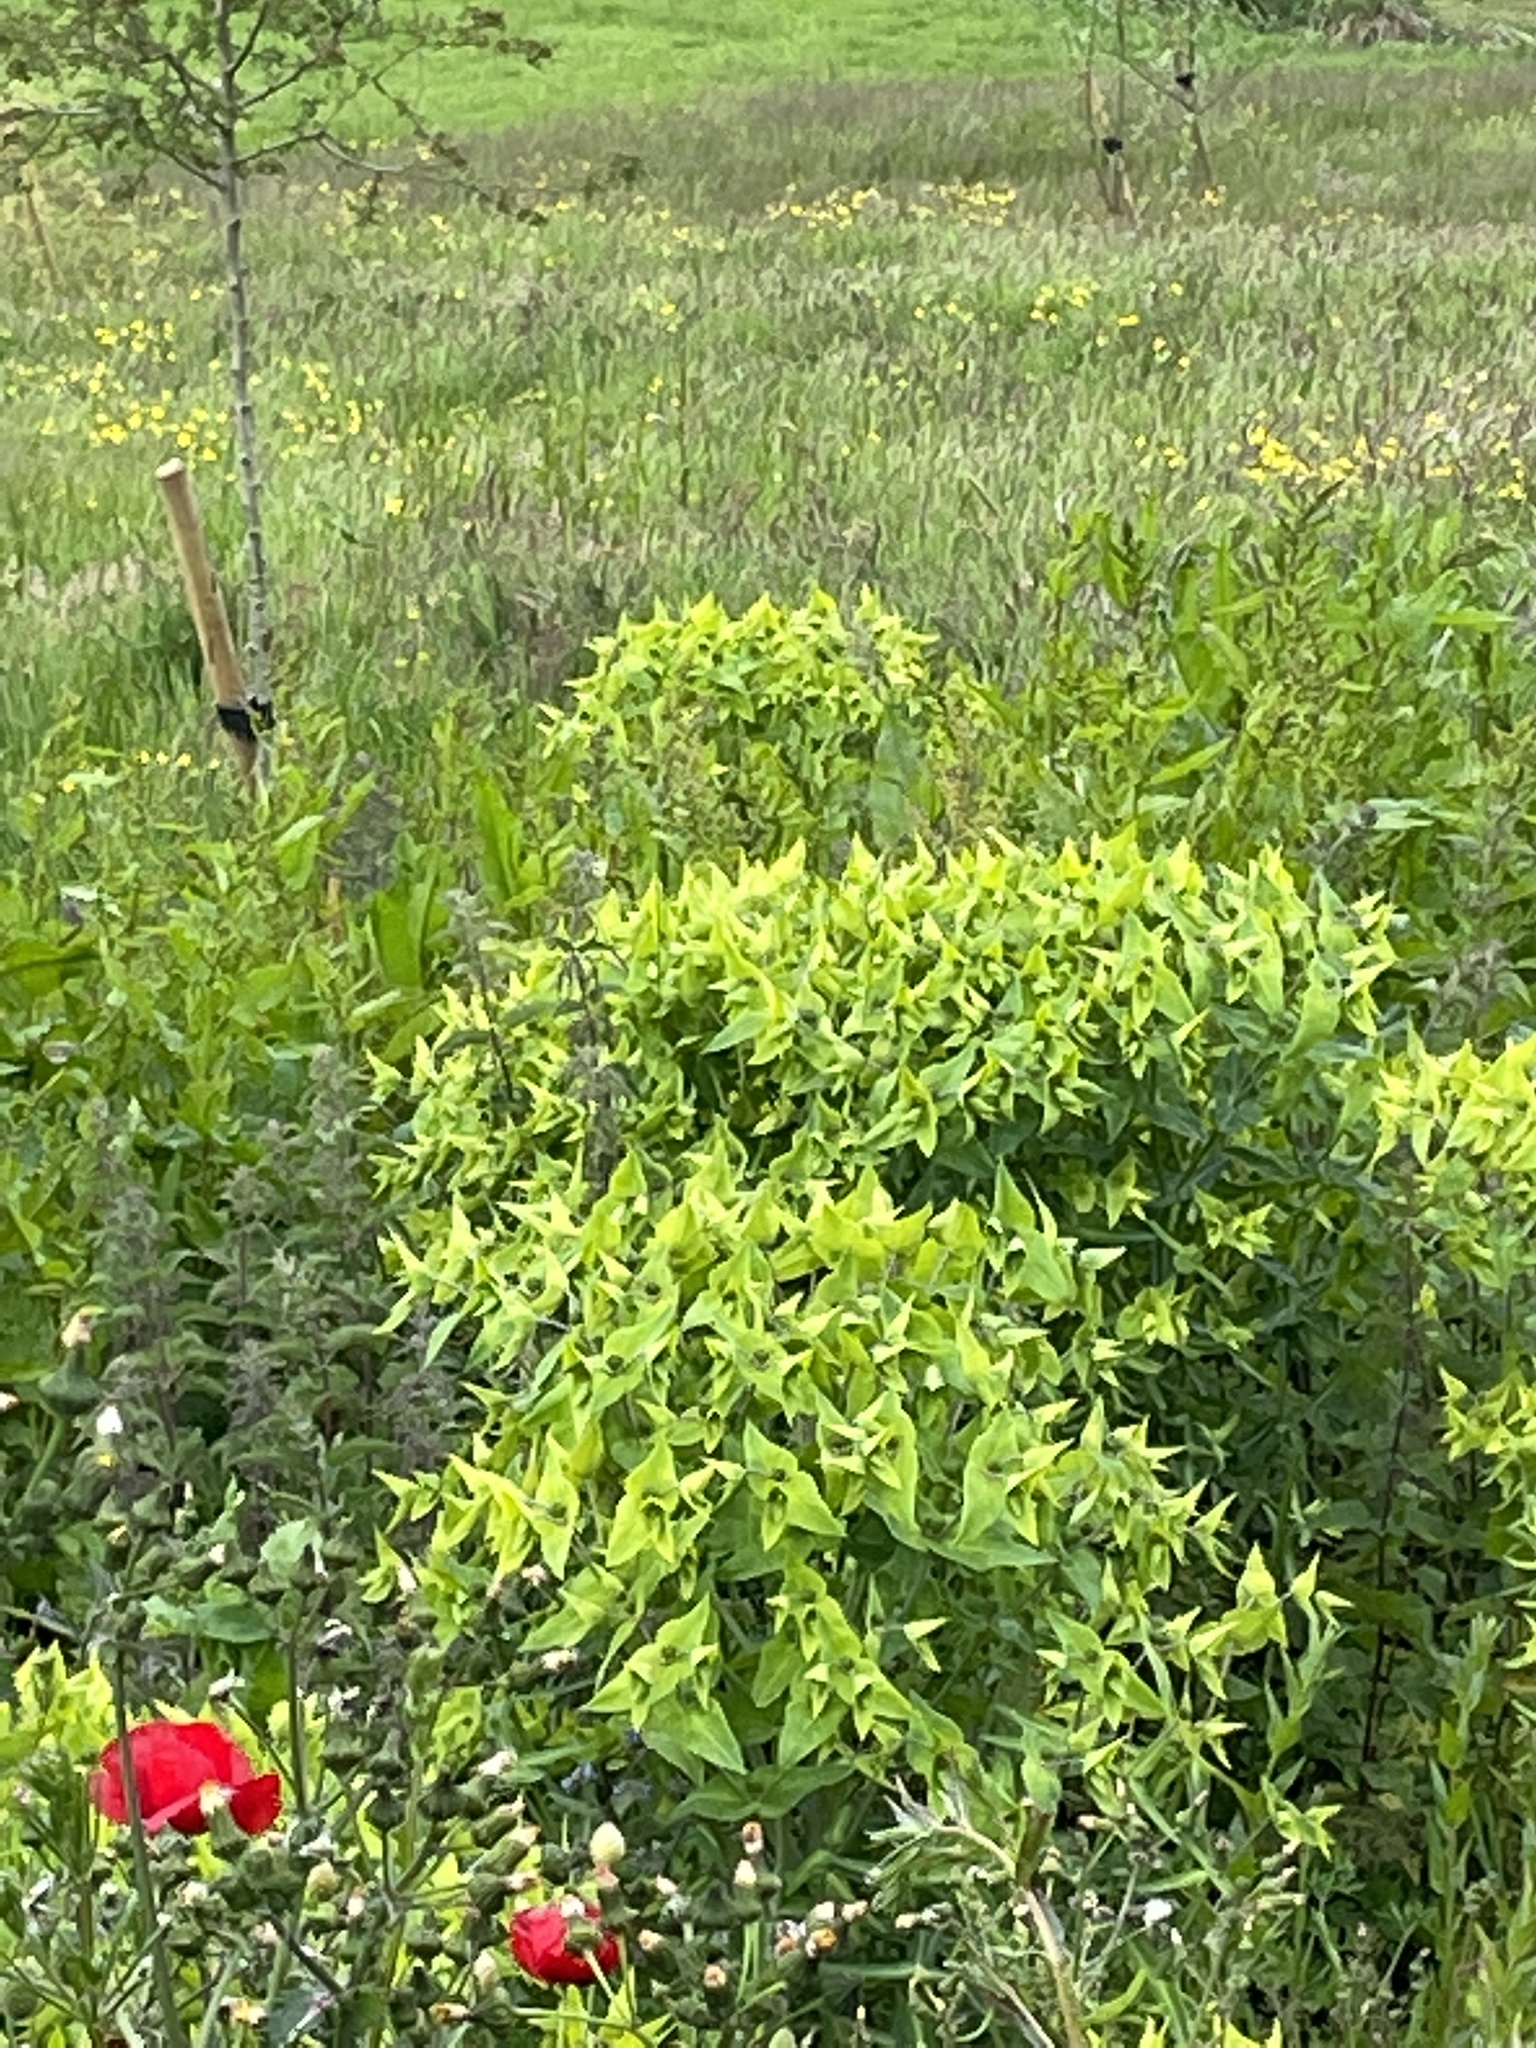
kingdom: Plantae
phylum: Tracheophyta
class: Magnoliopsida
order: Malpighiales
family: Euphorbiaceae
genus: Euphorbia
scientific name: Euphorbia lathyris
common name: Caper spurge
